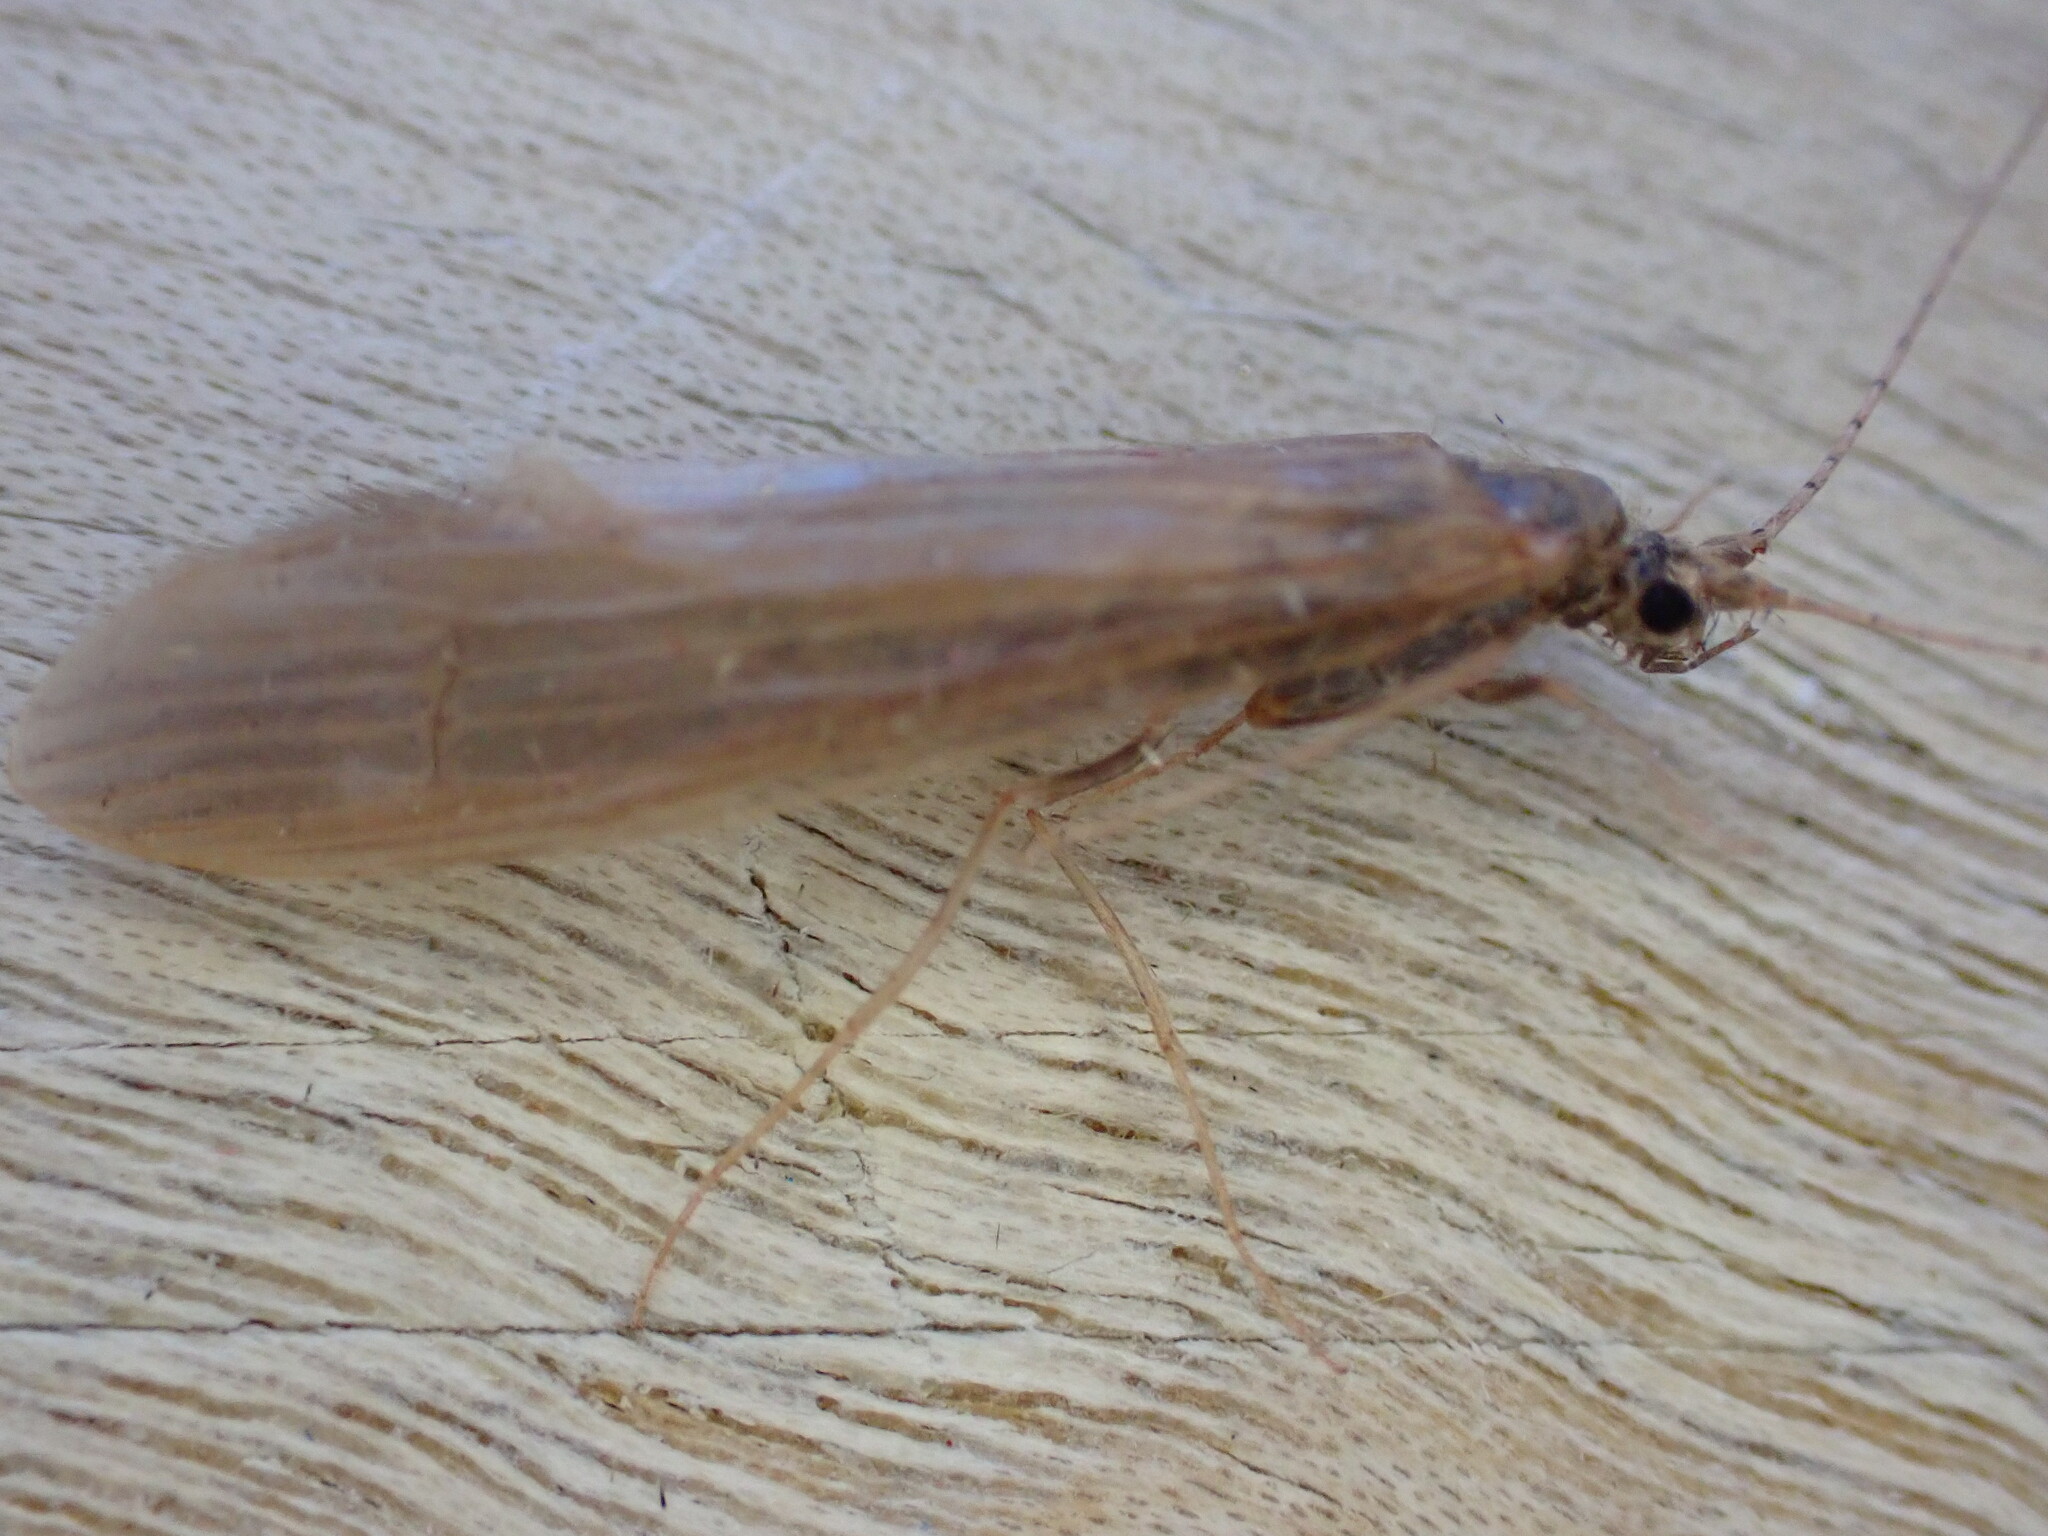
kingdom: Animalia
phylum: Arthropoda
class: Insecta
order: Trichoptera
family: Leptoceridae
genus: Oecetis
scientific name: Oecetis ochracea
